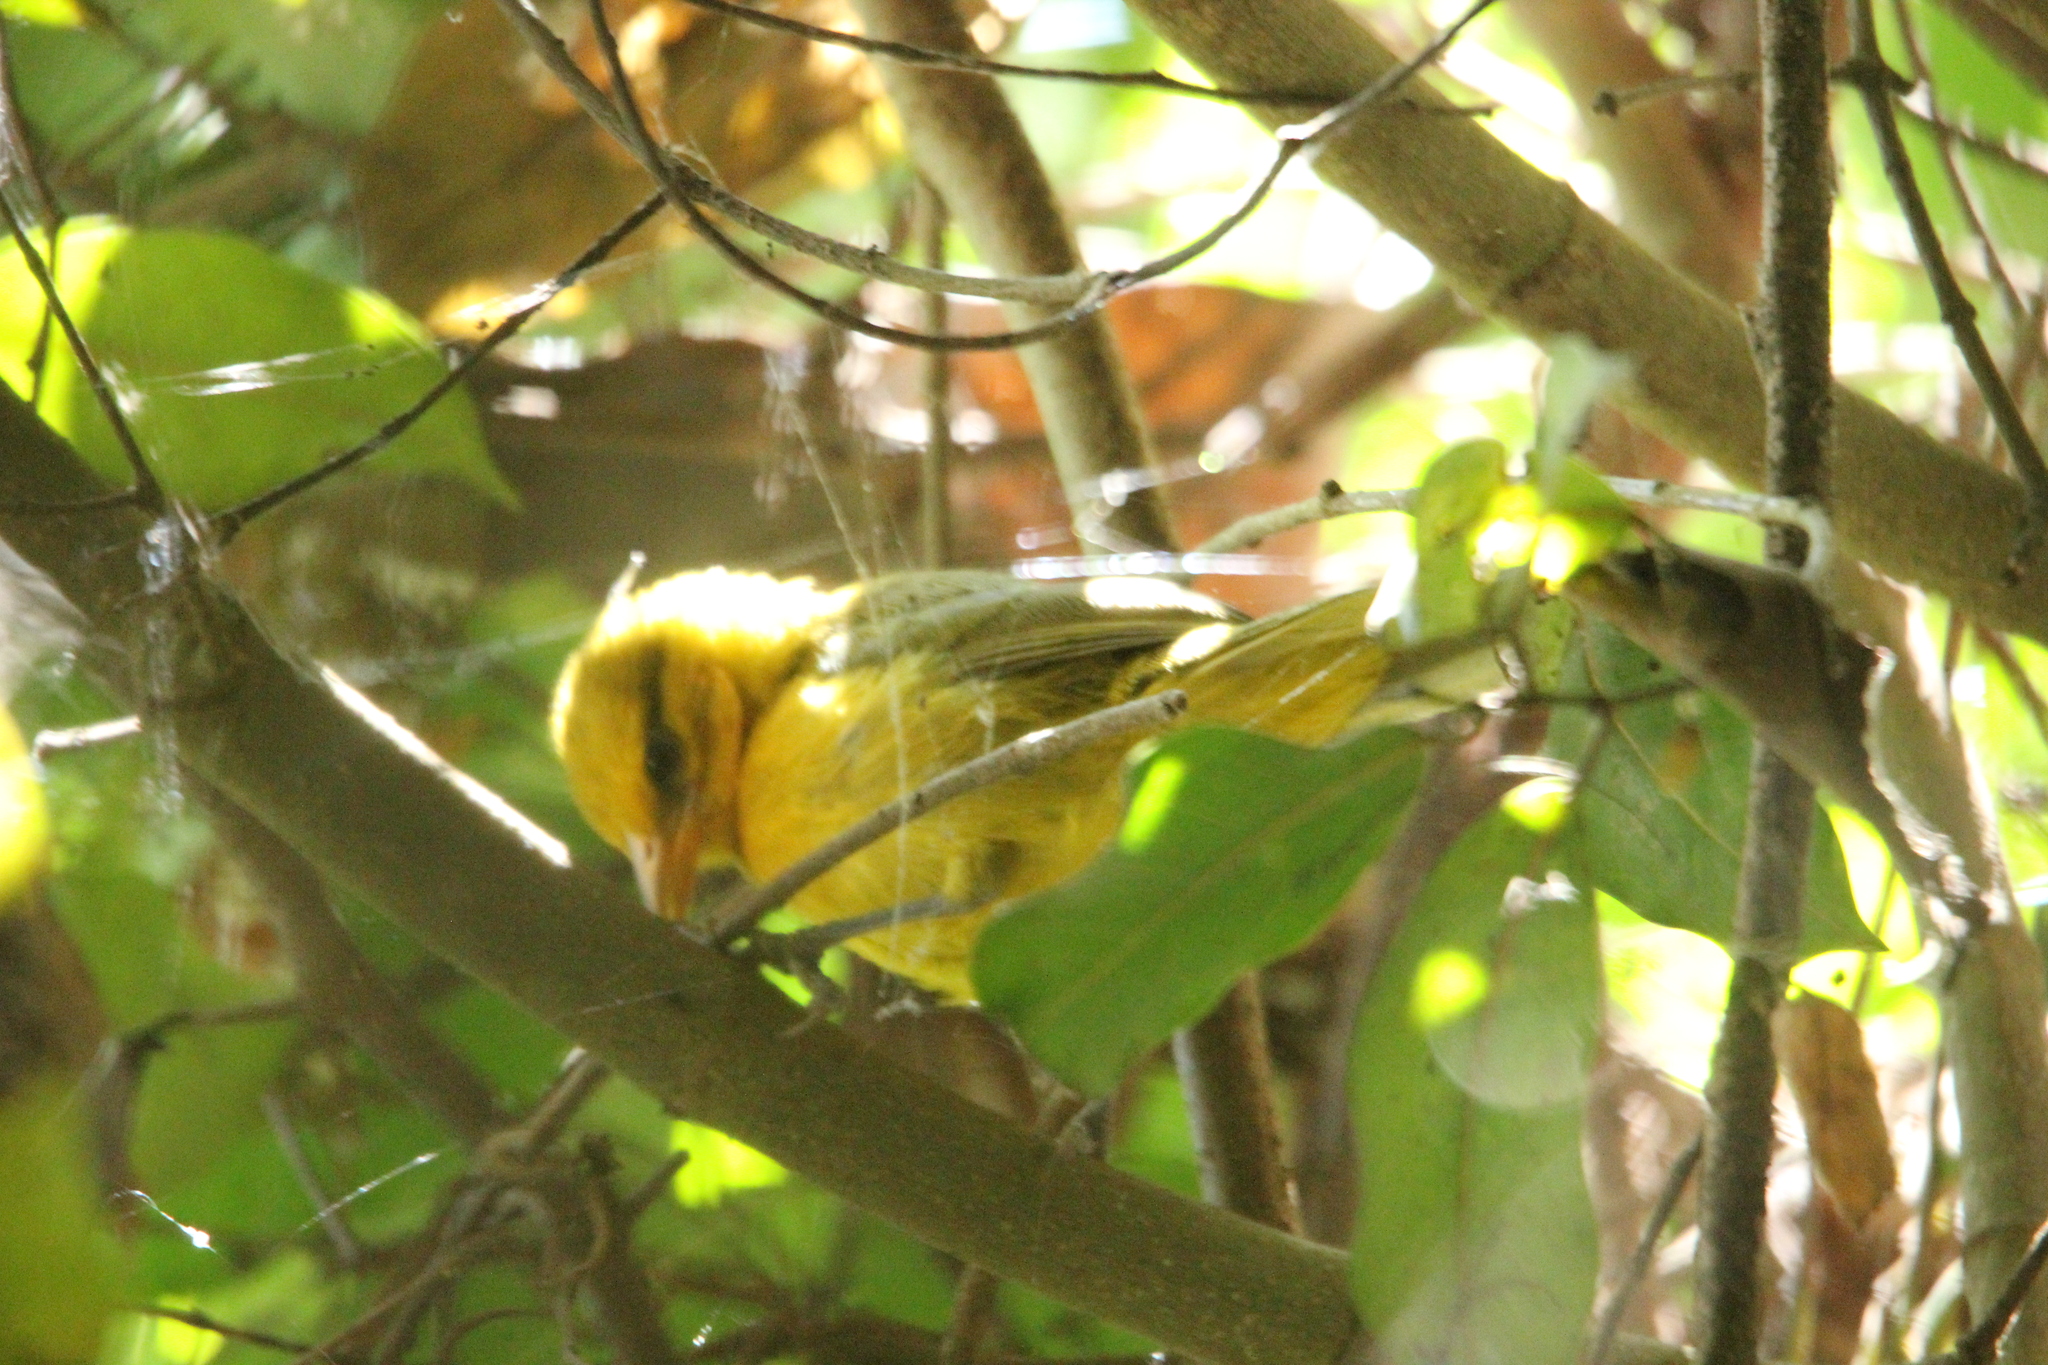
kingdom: Animalia
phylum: Chordata
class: Aves
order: Passeriformes
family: Ploceidae
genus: Ploceus
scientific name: Ploceus ocularis
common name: Spectacled weaver
